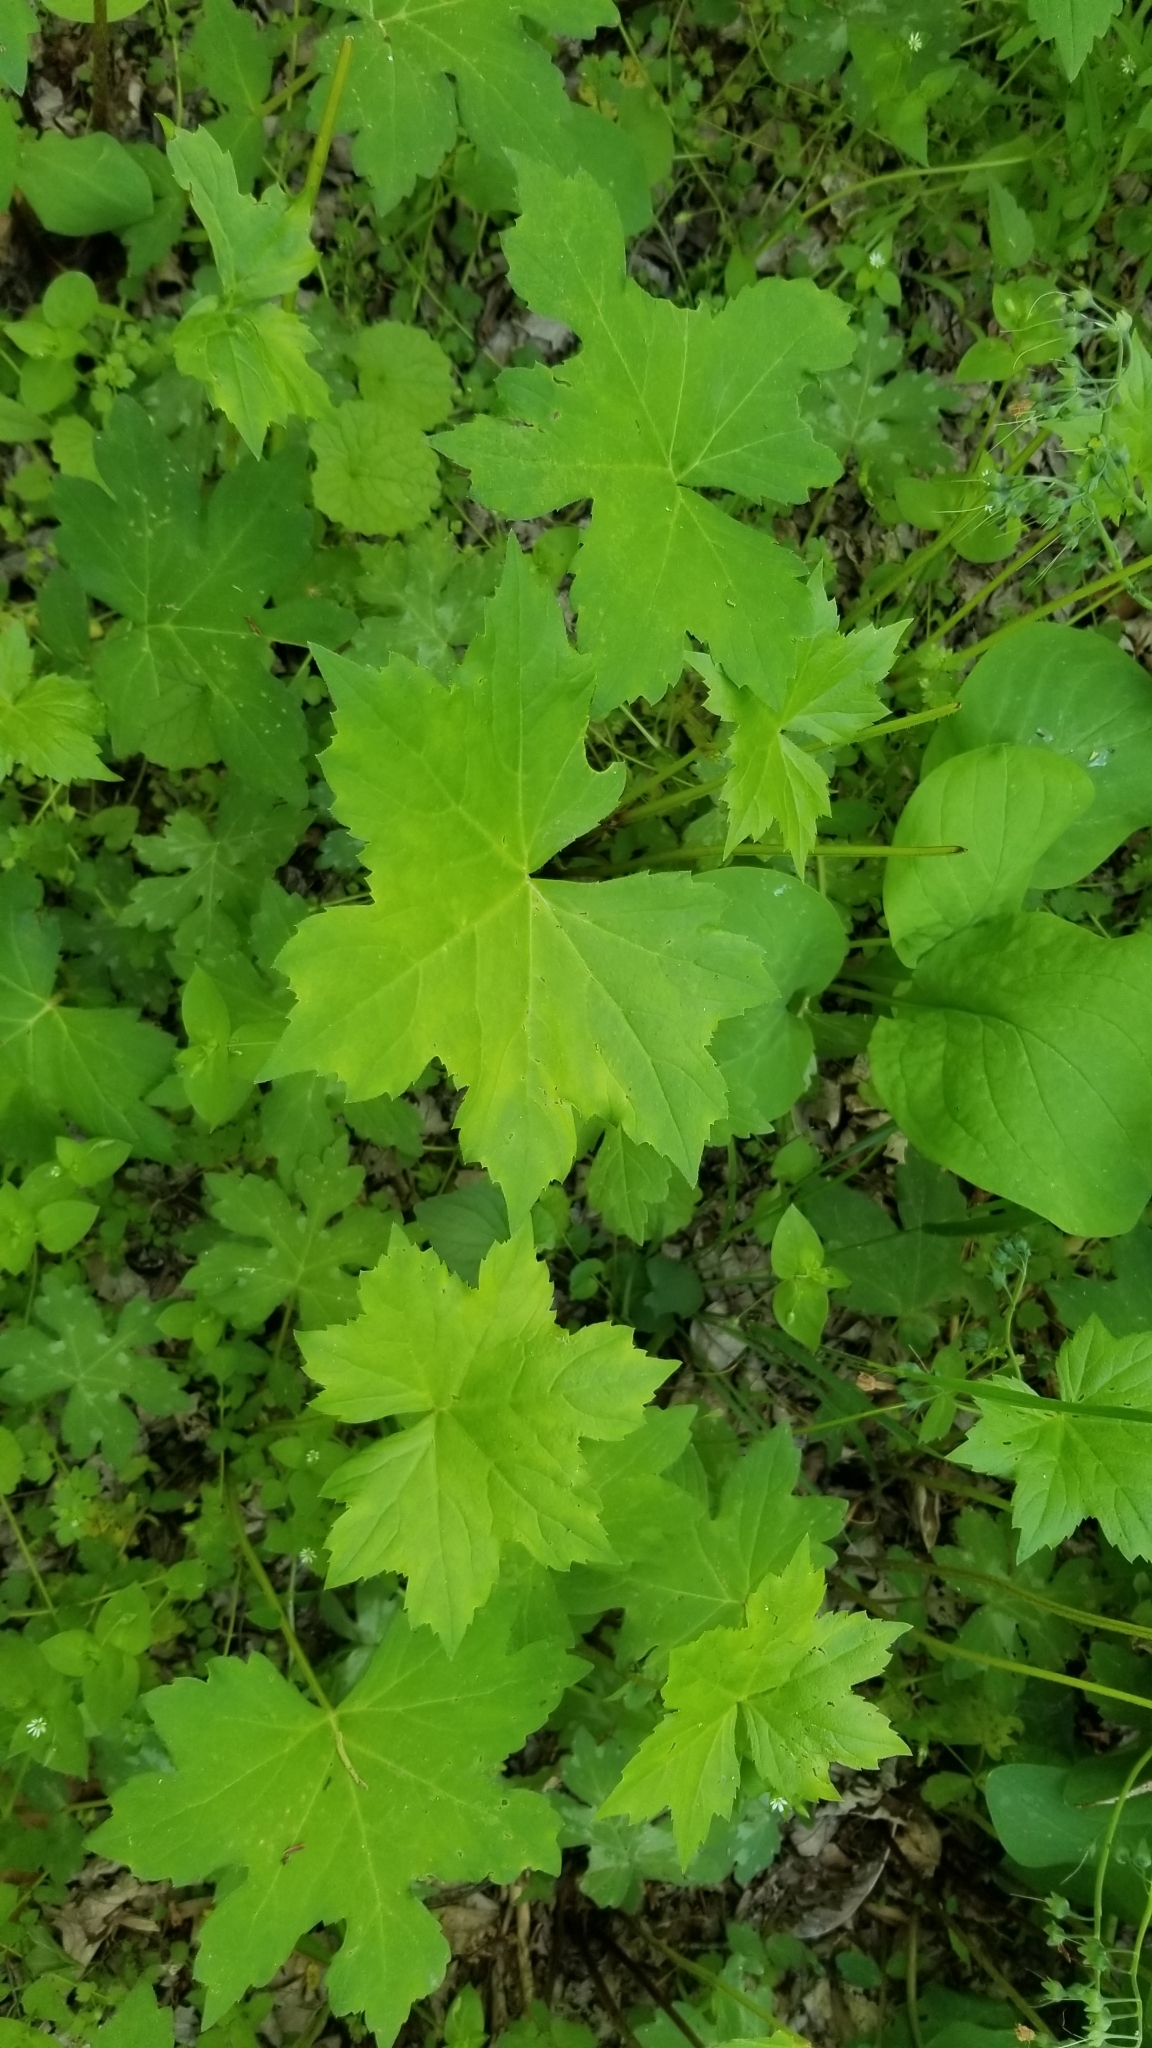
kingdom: Plantae
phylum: Tracheophyta
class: Magnoliopsida
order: Boraginales
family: Hydrophyllaceae
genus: Hydrophyllum
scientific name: Hydrophyllum canadense
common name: Canada waterleaf
